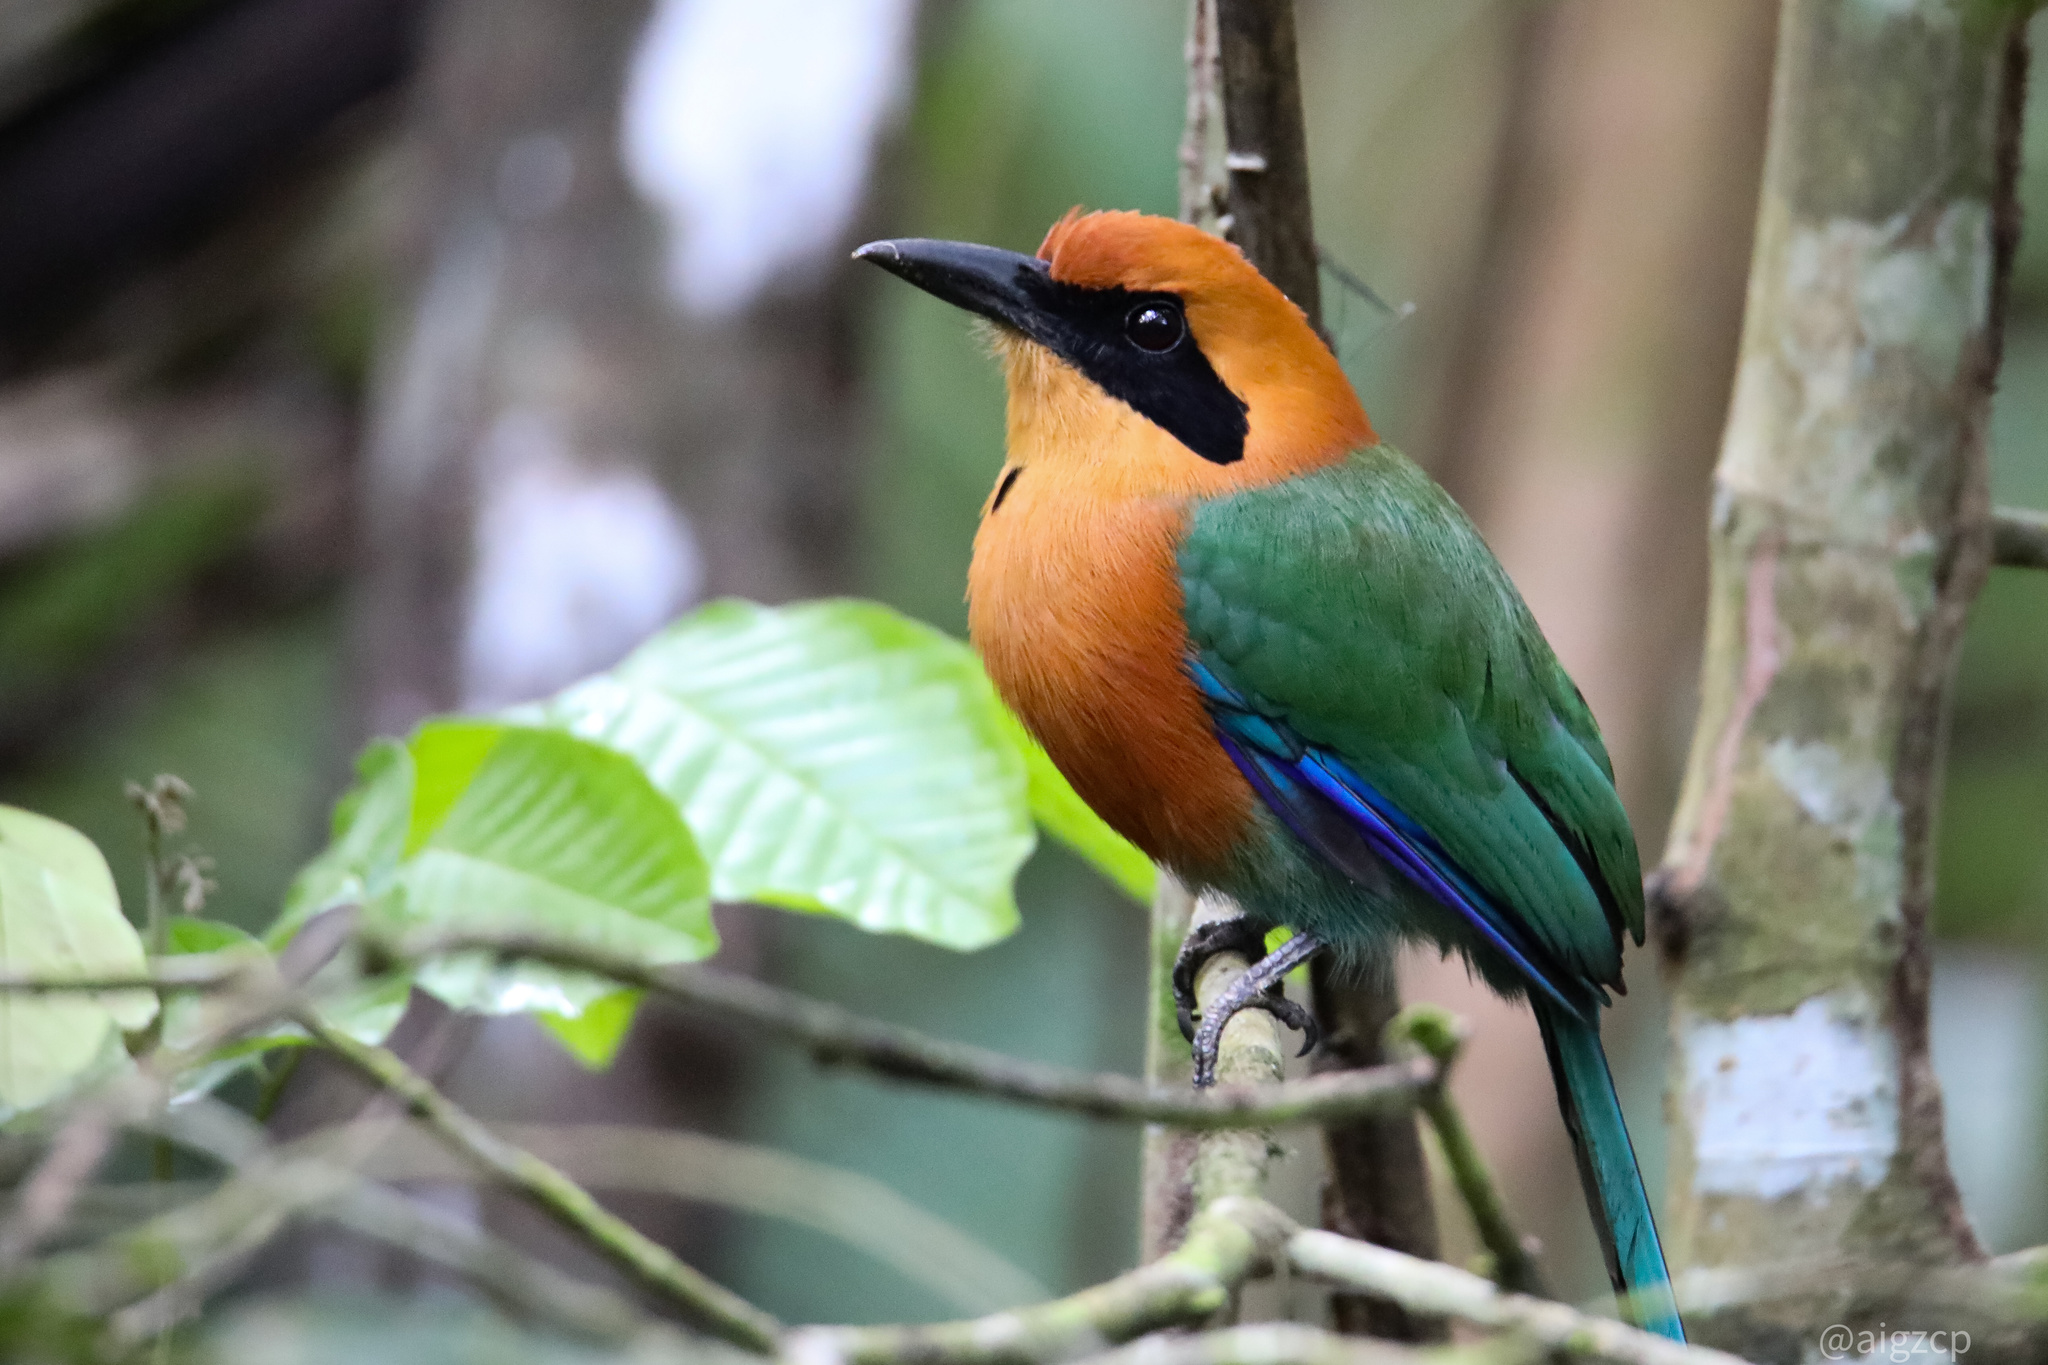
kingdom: Animalia
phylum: Chordata
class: Aves
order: Coraciiformes
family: Momotidae
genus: Baryphthengus
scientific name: Baryphthengus martii
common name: Rufous motmot
